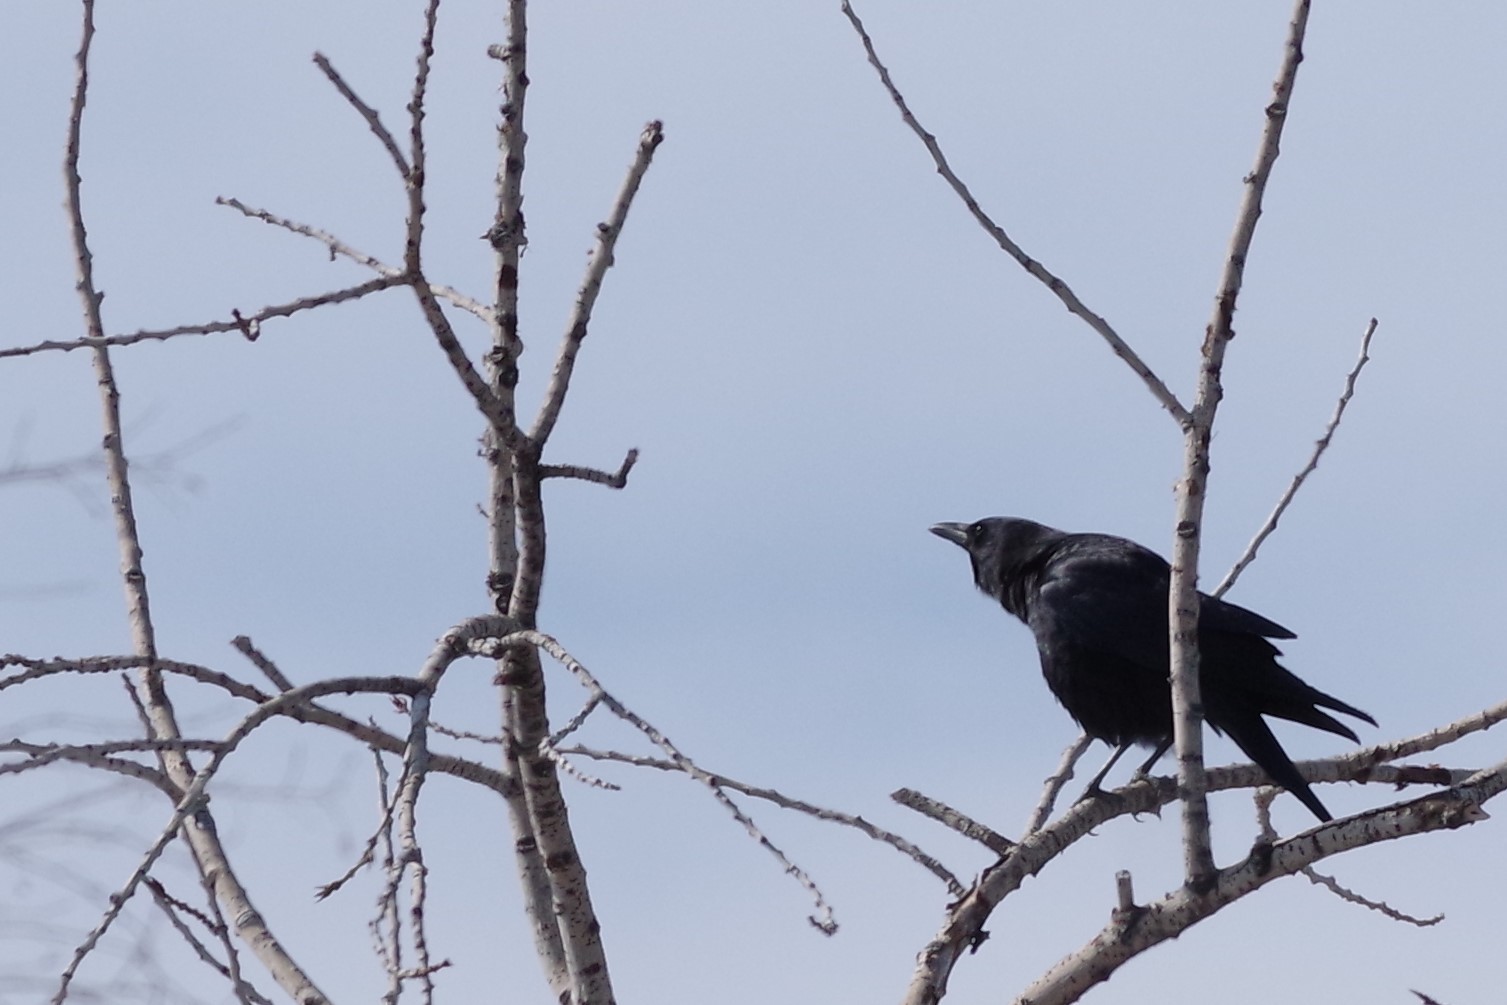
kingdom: Animalia
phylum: Chordata
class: Aves
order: Passeriformes
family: Corvidae
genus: Corvus
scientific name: Corvus brachyrhynchos
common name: American crow
